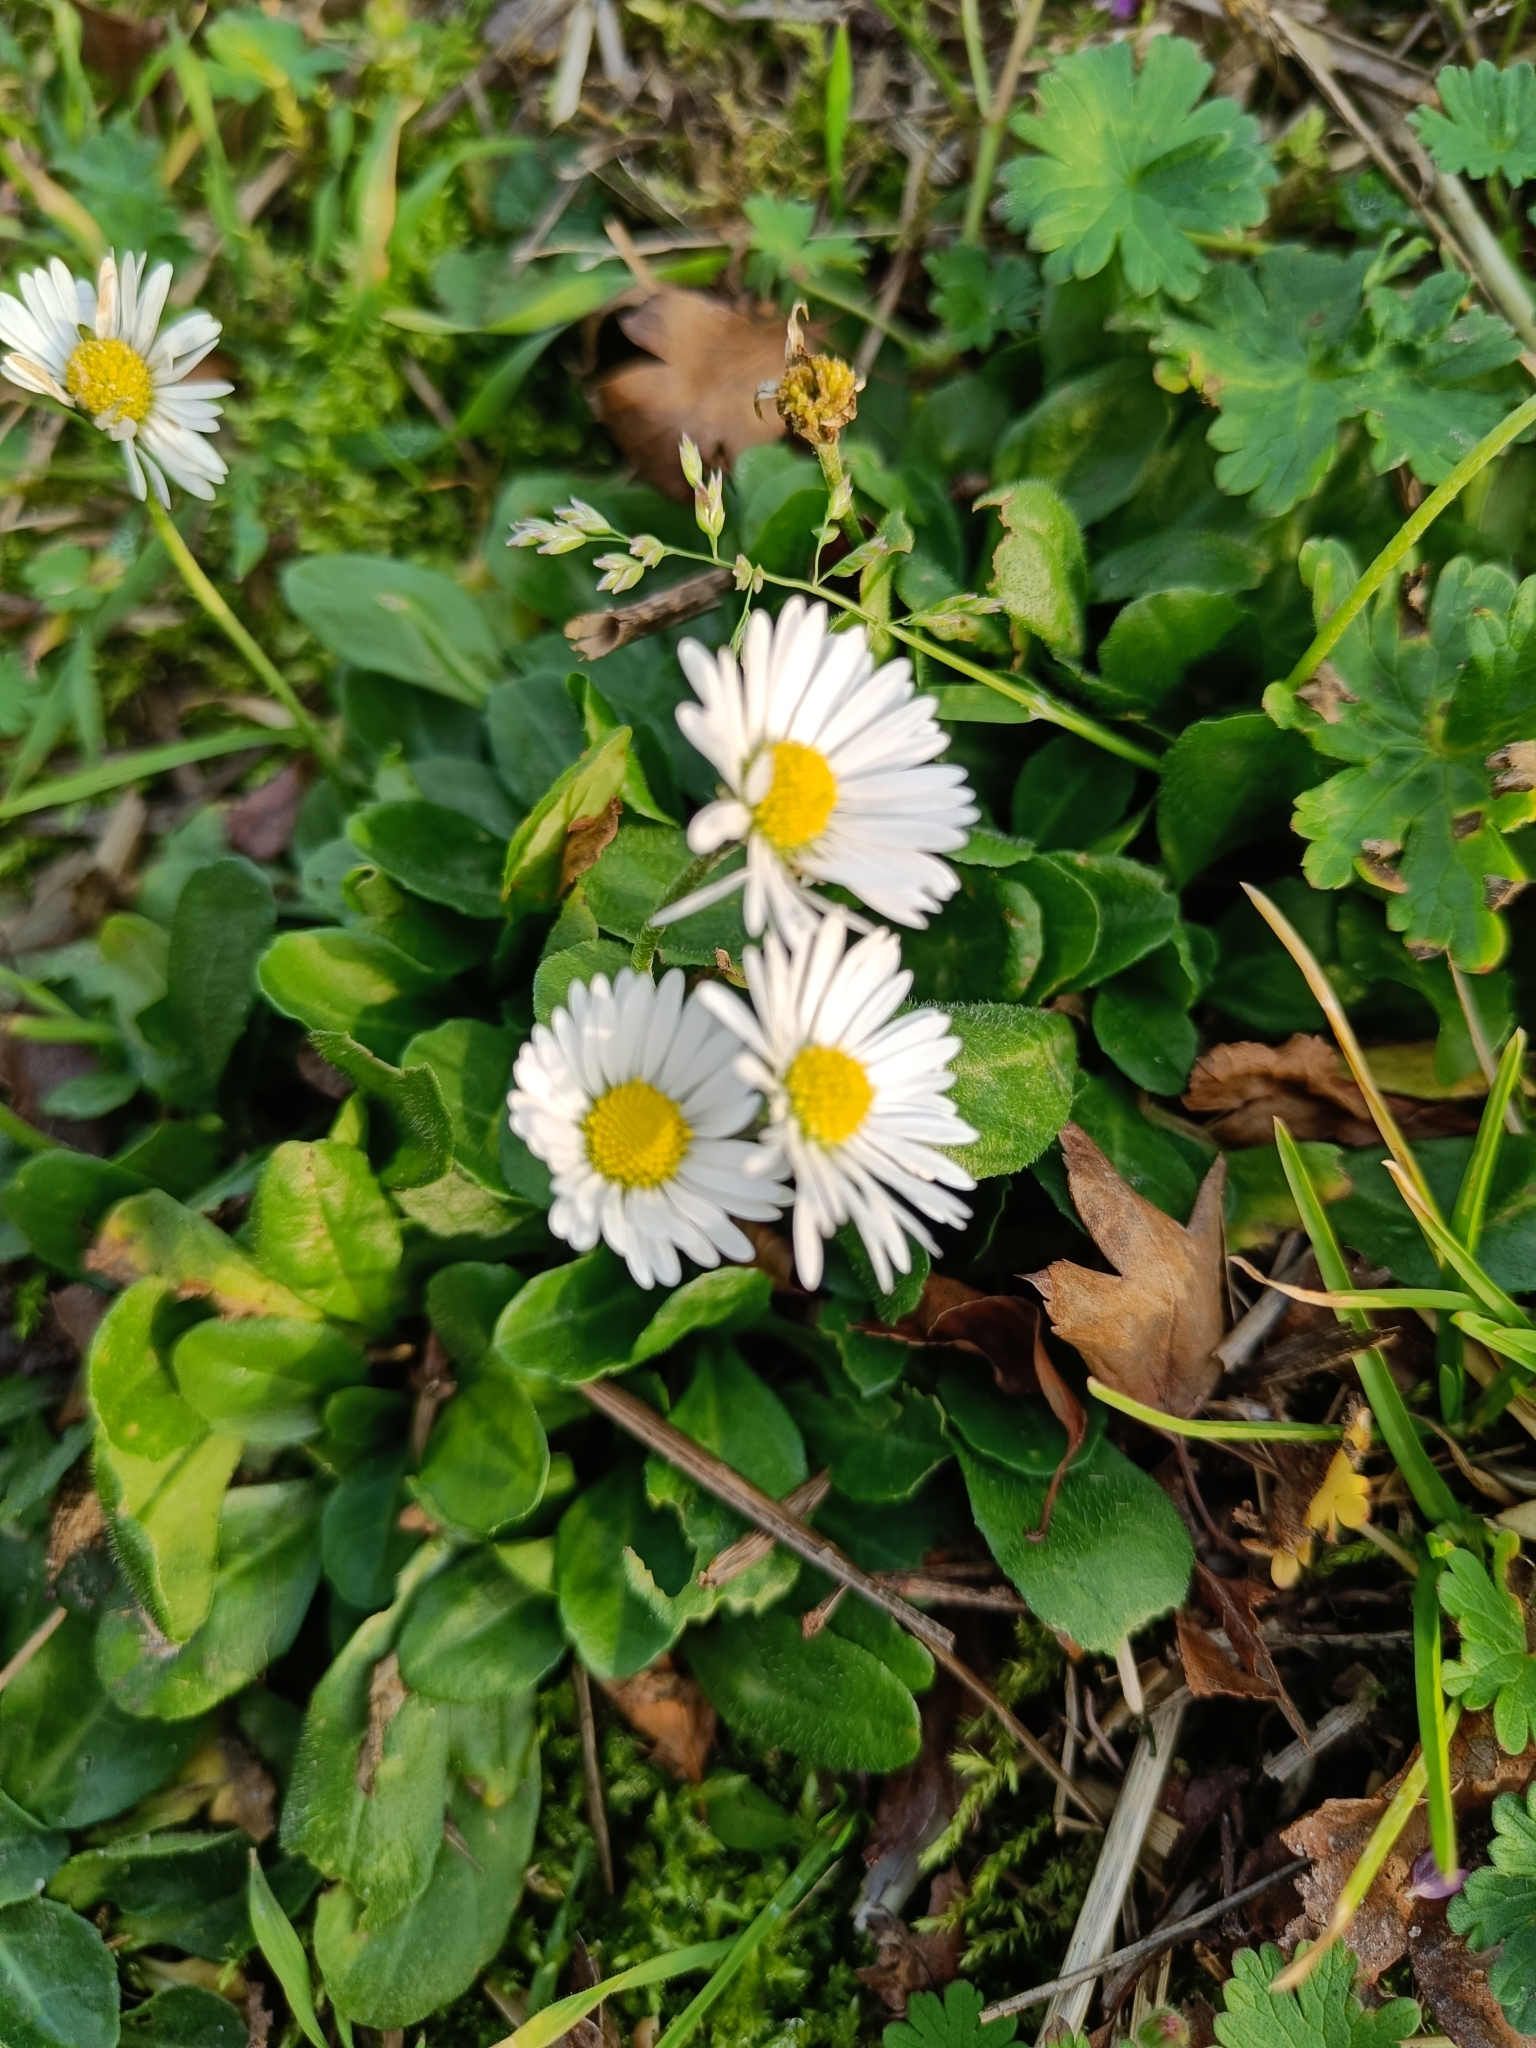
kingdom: Plantae
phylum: Tracheophyta
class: Magnoliopsida
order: Asterales
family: Asteraceae
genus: Bellis
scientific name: Bellis perennis
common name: Lawndaisy
